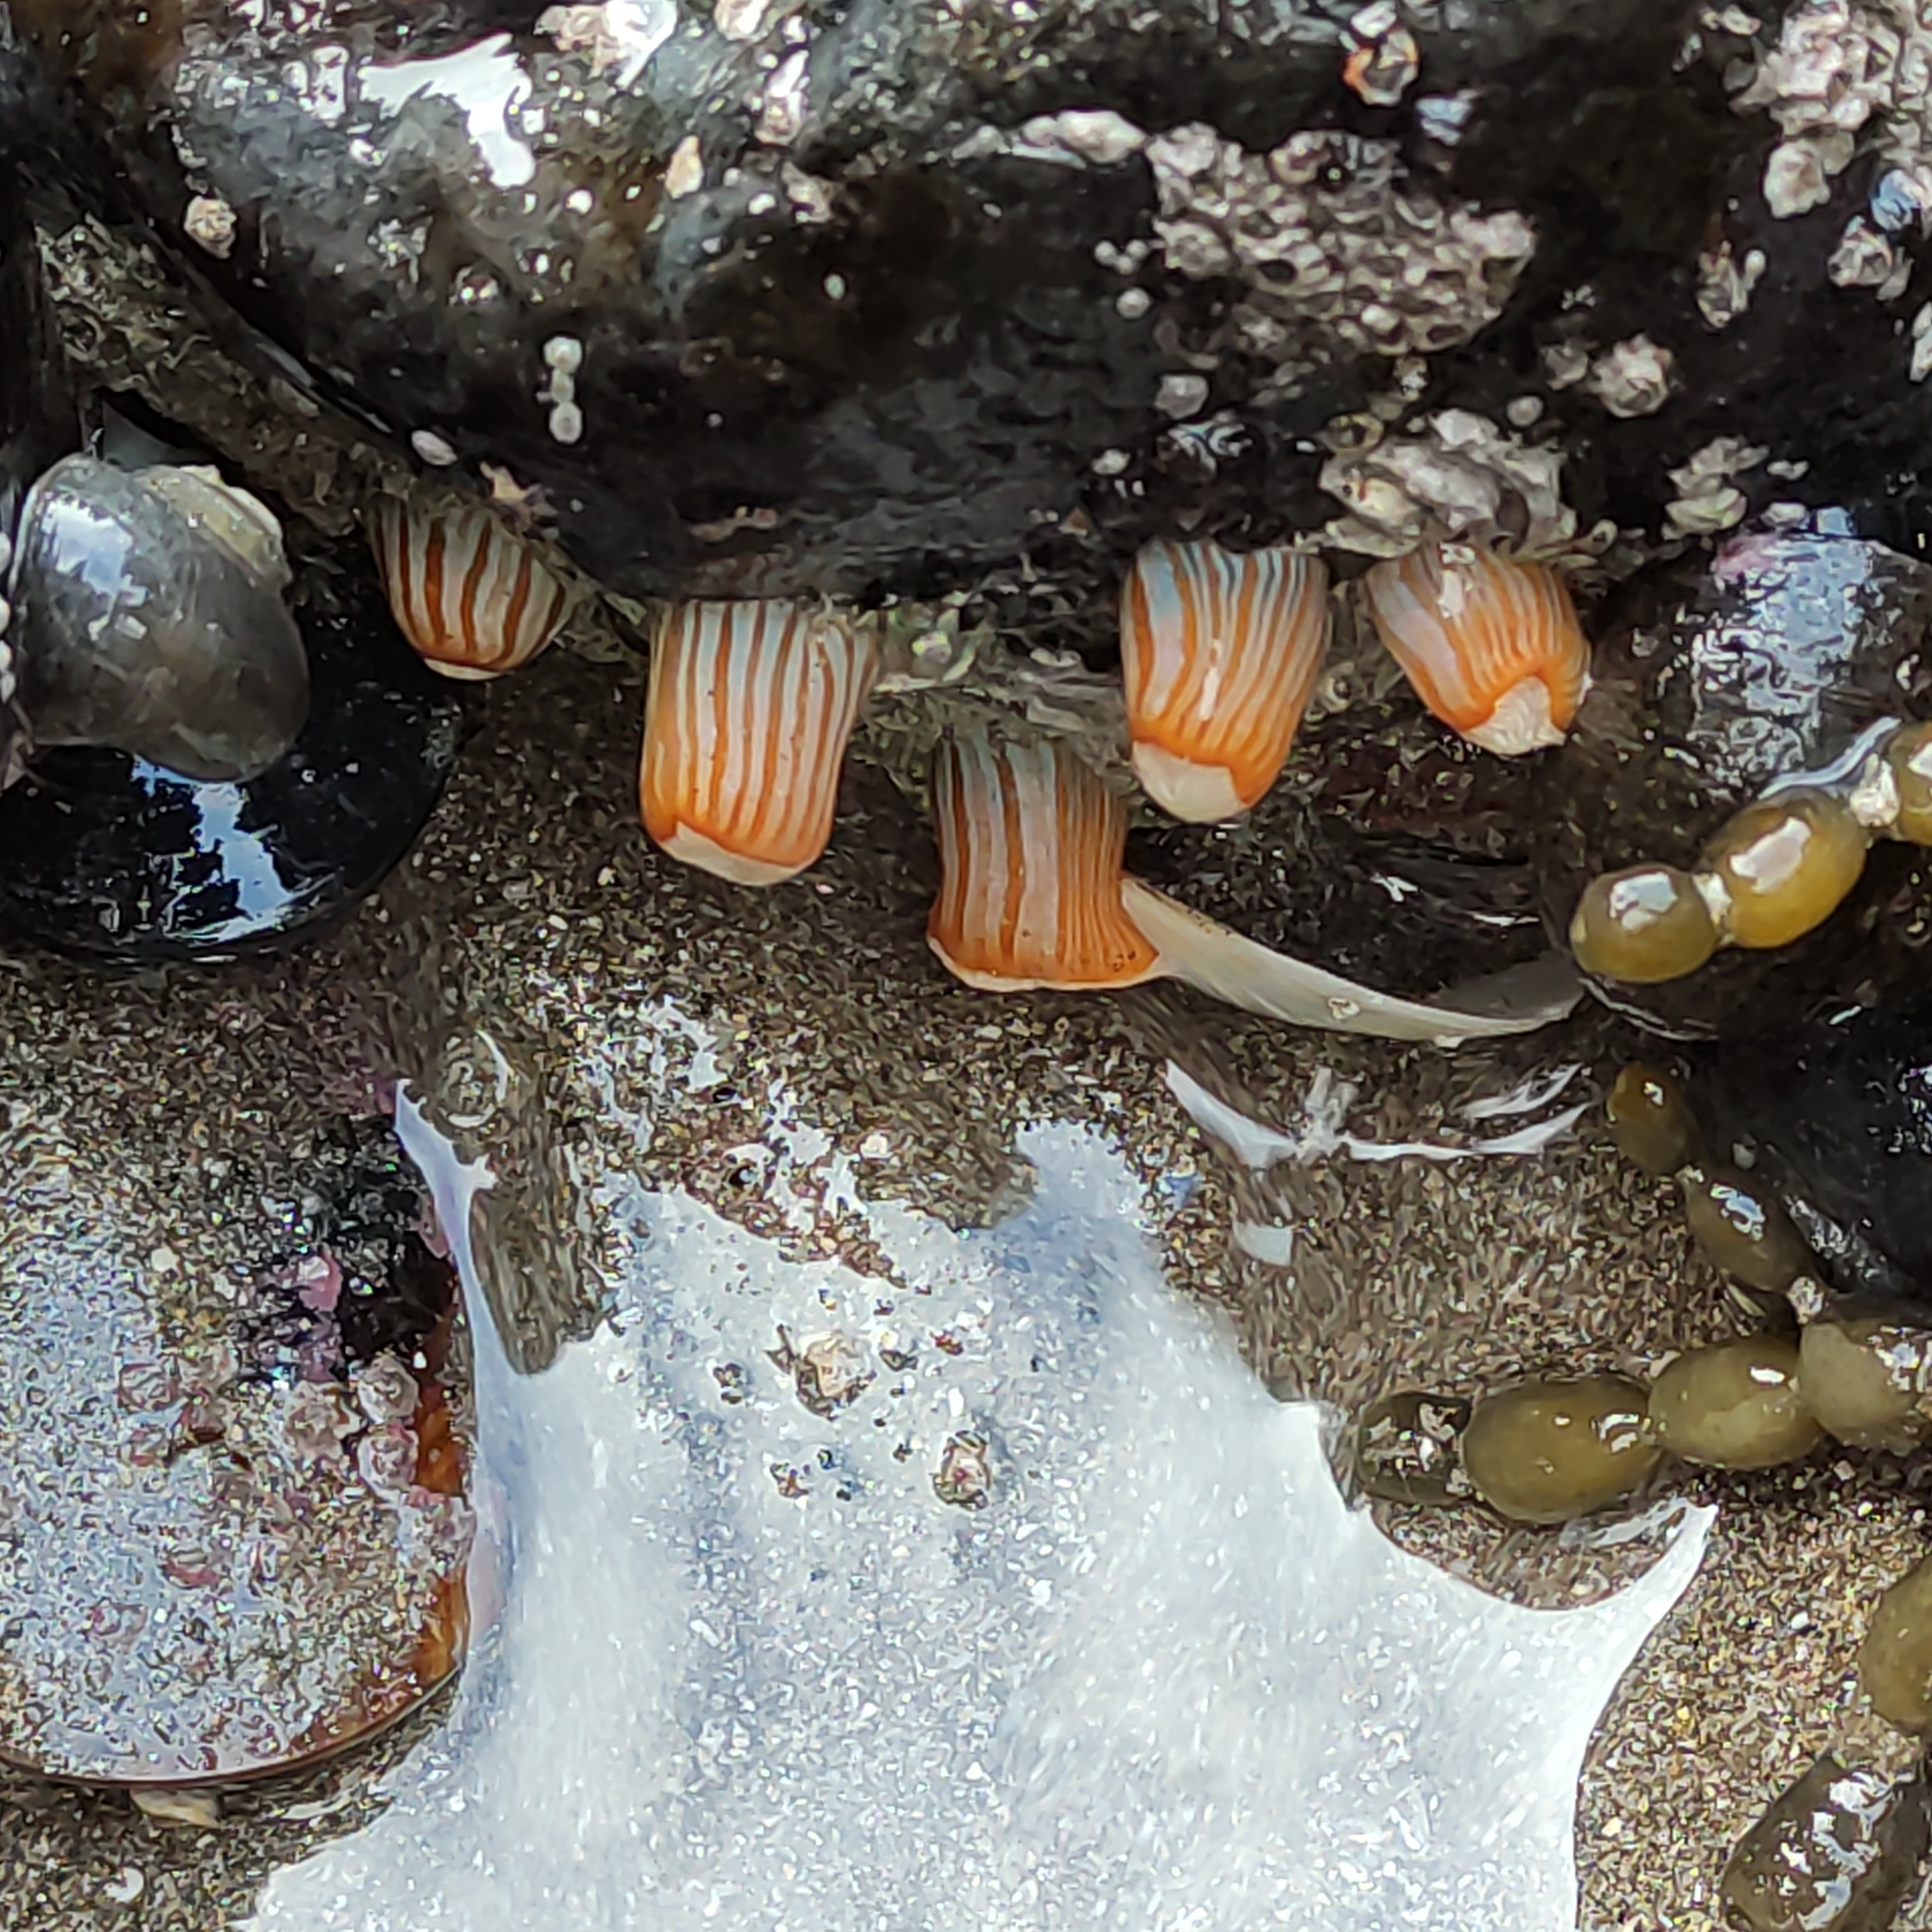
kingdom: Animalia
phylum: Cnidaria
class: Anthozoa
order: Actiniaria
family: Sagartiidae
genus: Anthothoe
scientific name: Anthothoe albocincta
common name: Orange striped anemone
